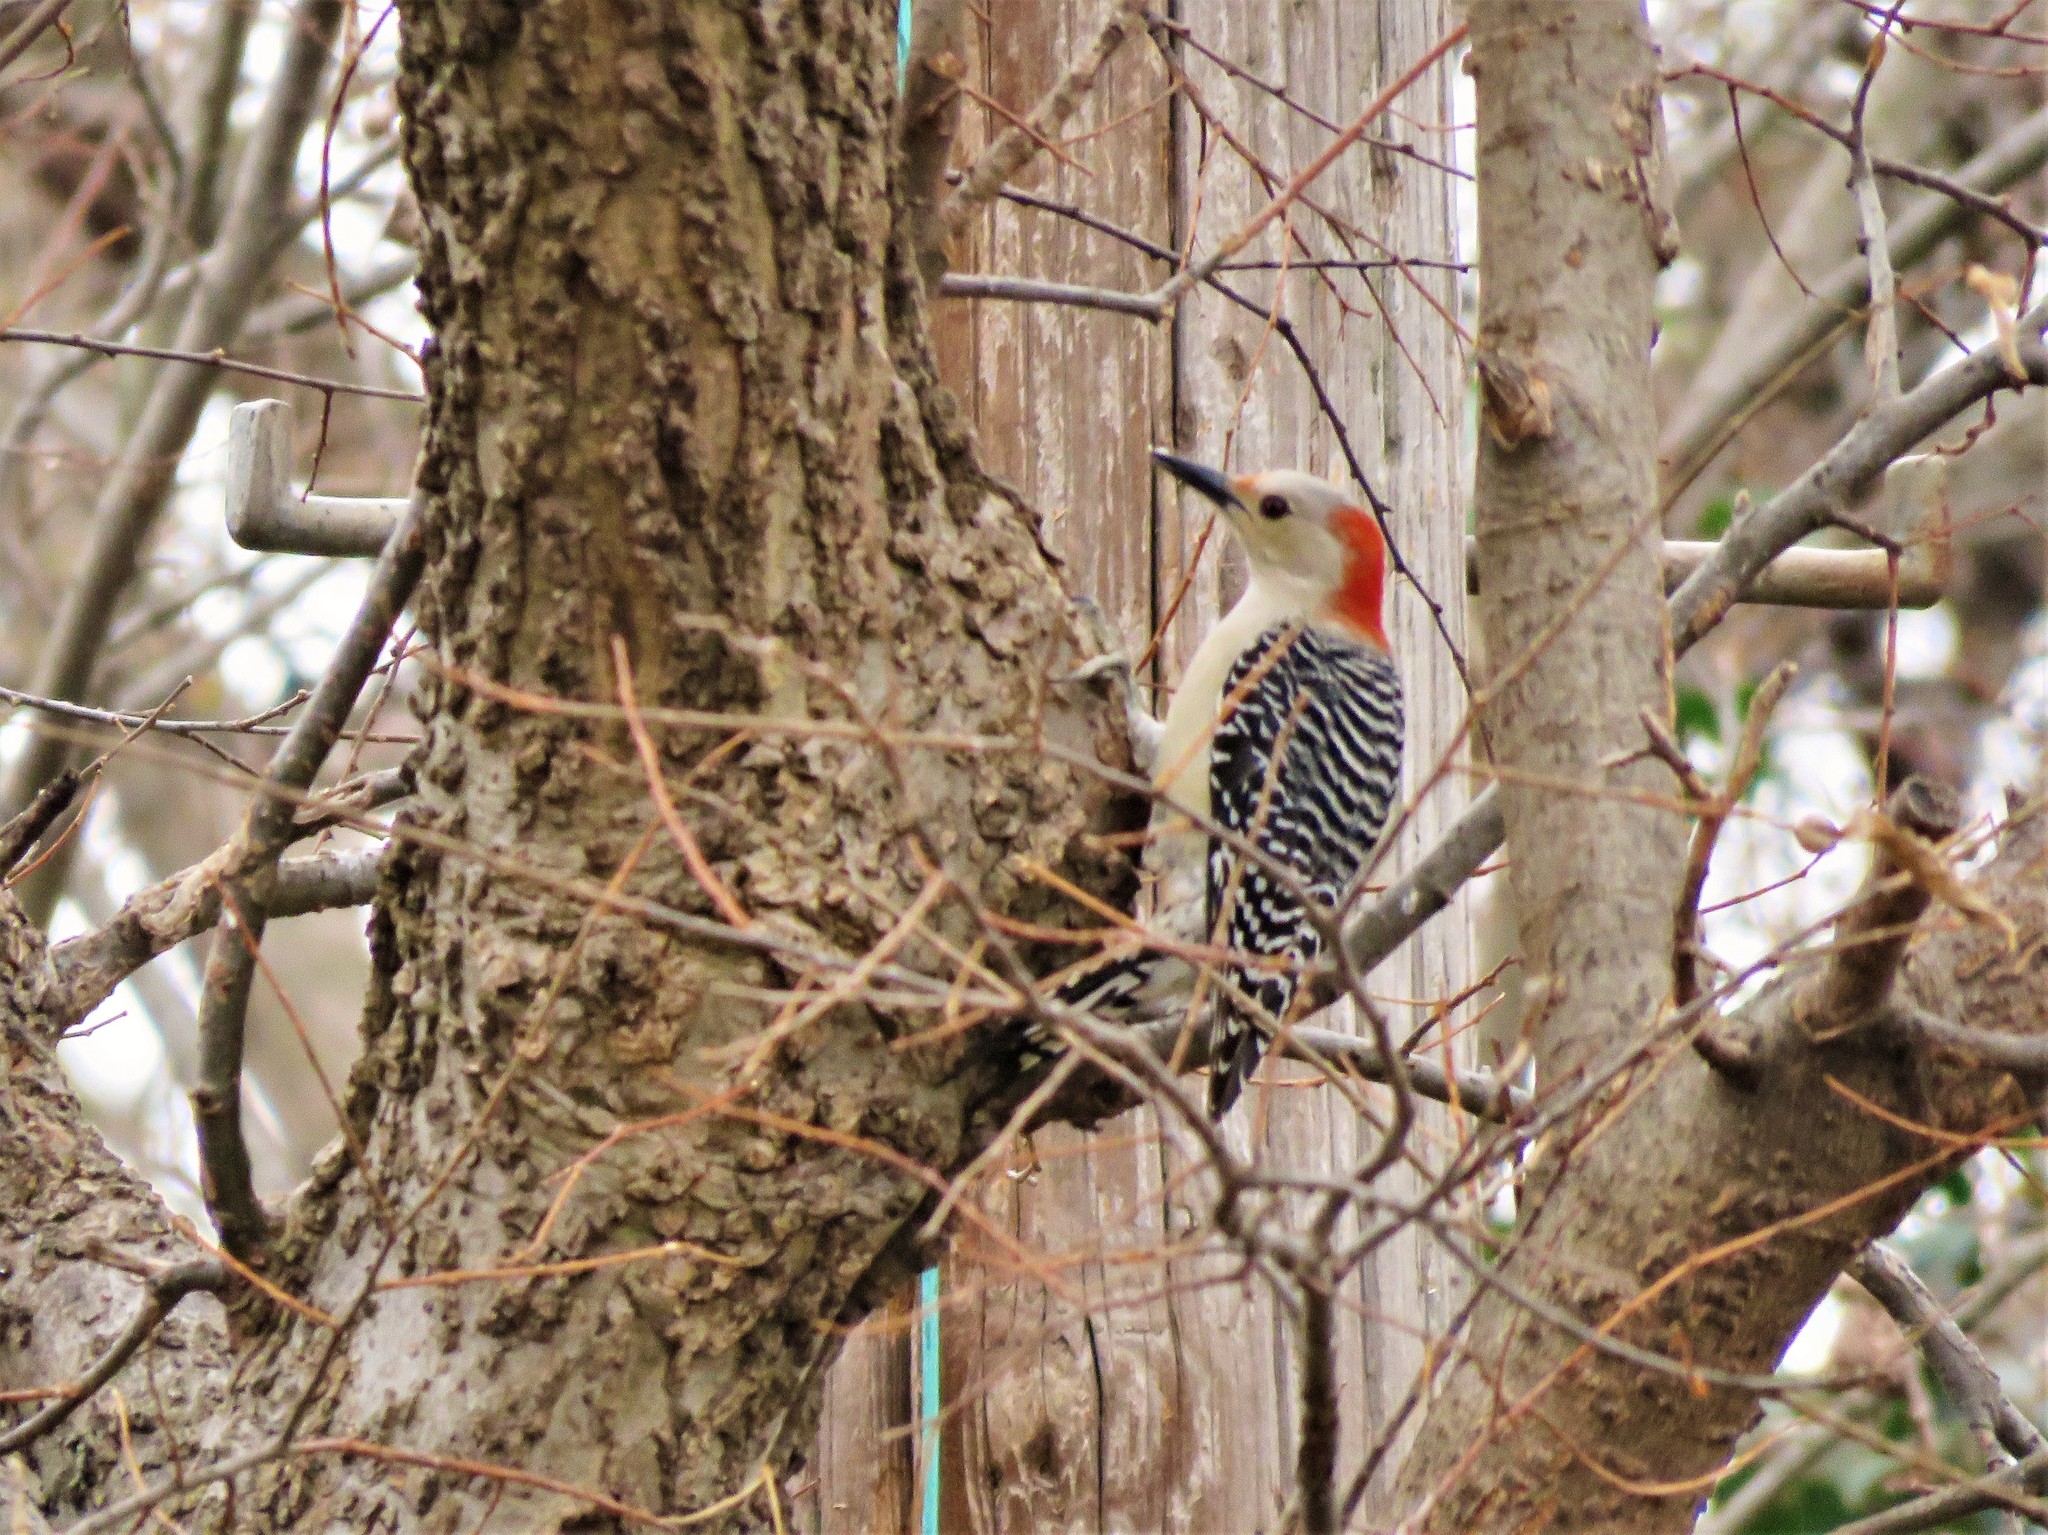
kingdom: Animalia
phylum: Chordata
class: Aves
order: Piciformes
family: Picidae
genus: Melanerpes
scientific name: Melanerpes carolinus
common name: Red-bellied woodpecker
